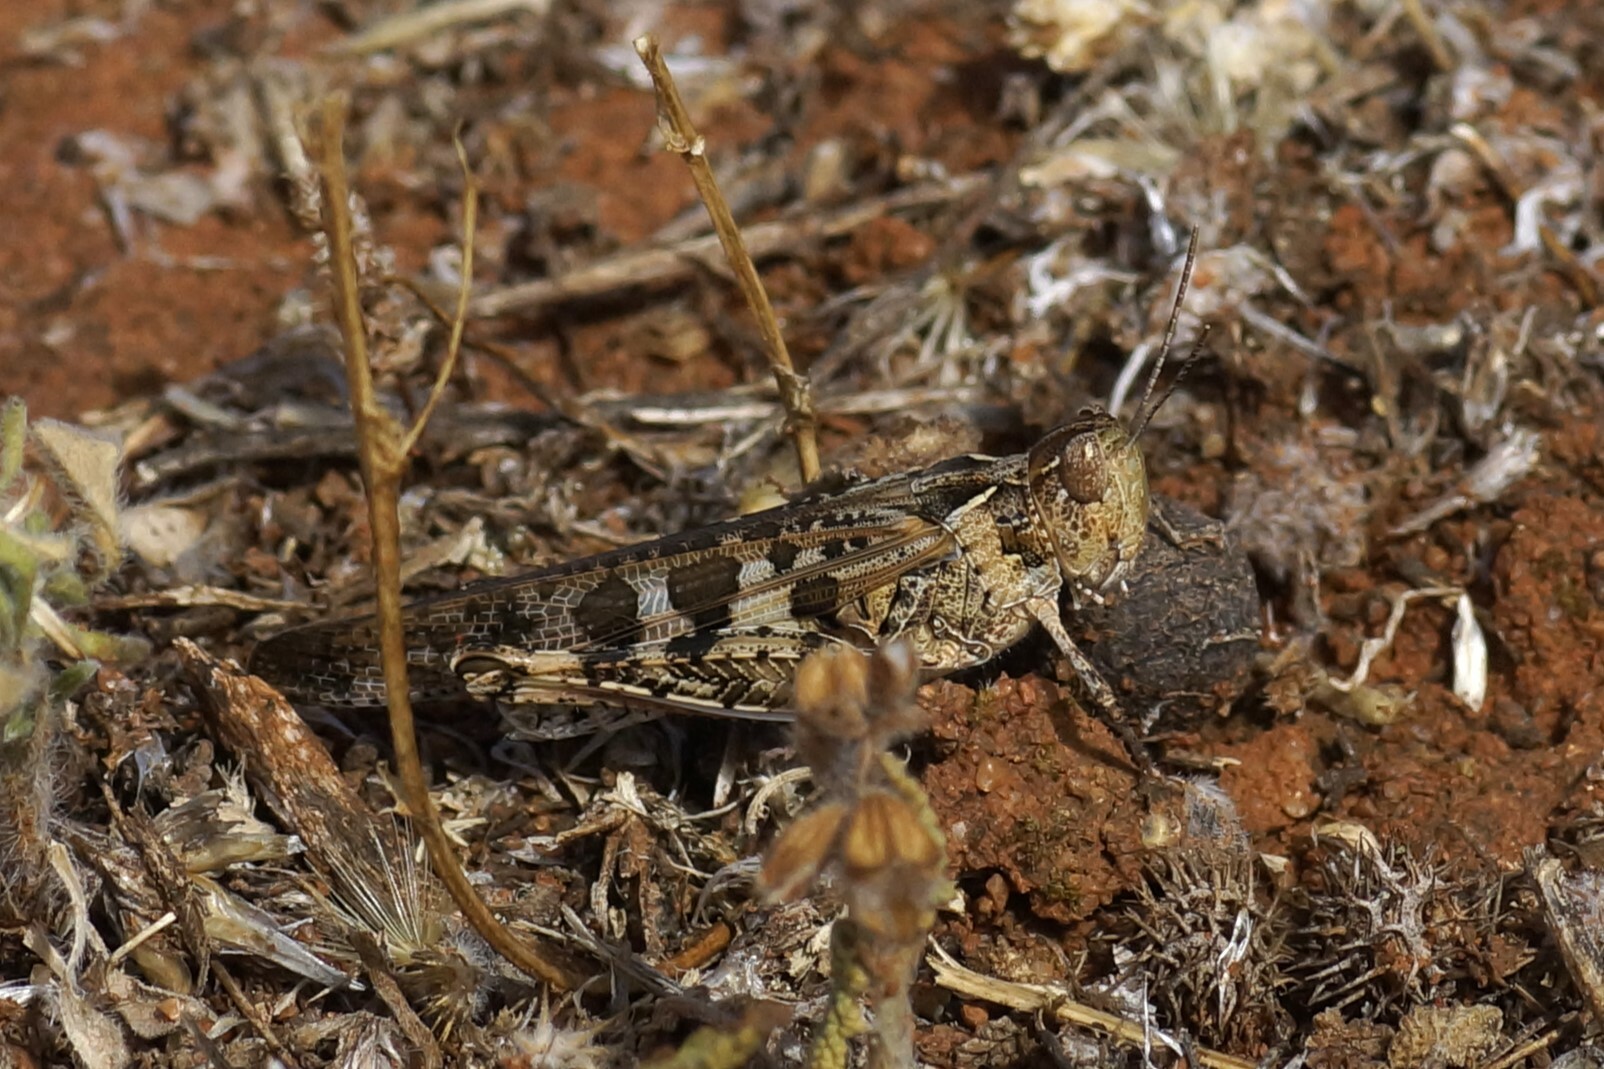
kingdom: Animalia
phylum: Arthropoda
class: Insecta
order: Orthoptera
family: Acrididae
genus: Chortoicetes
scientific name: Chortoicetes terminifera
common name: Australian plague locust
